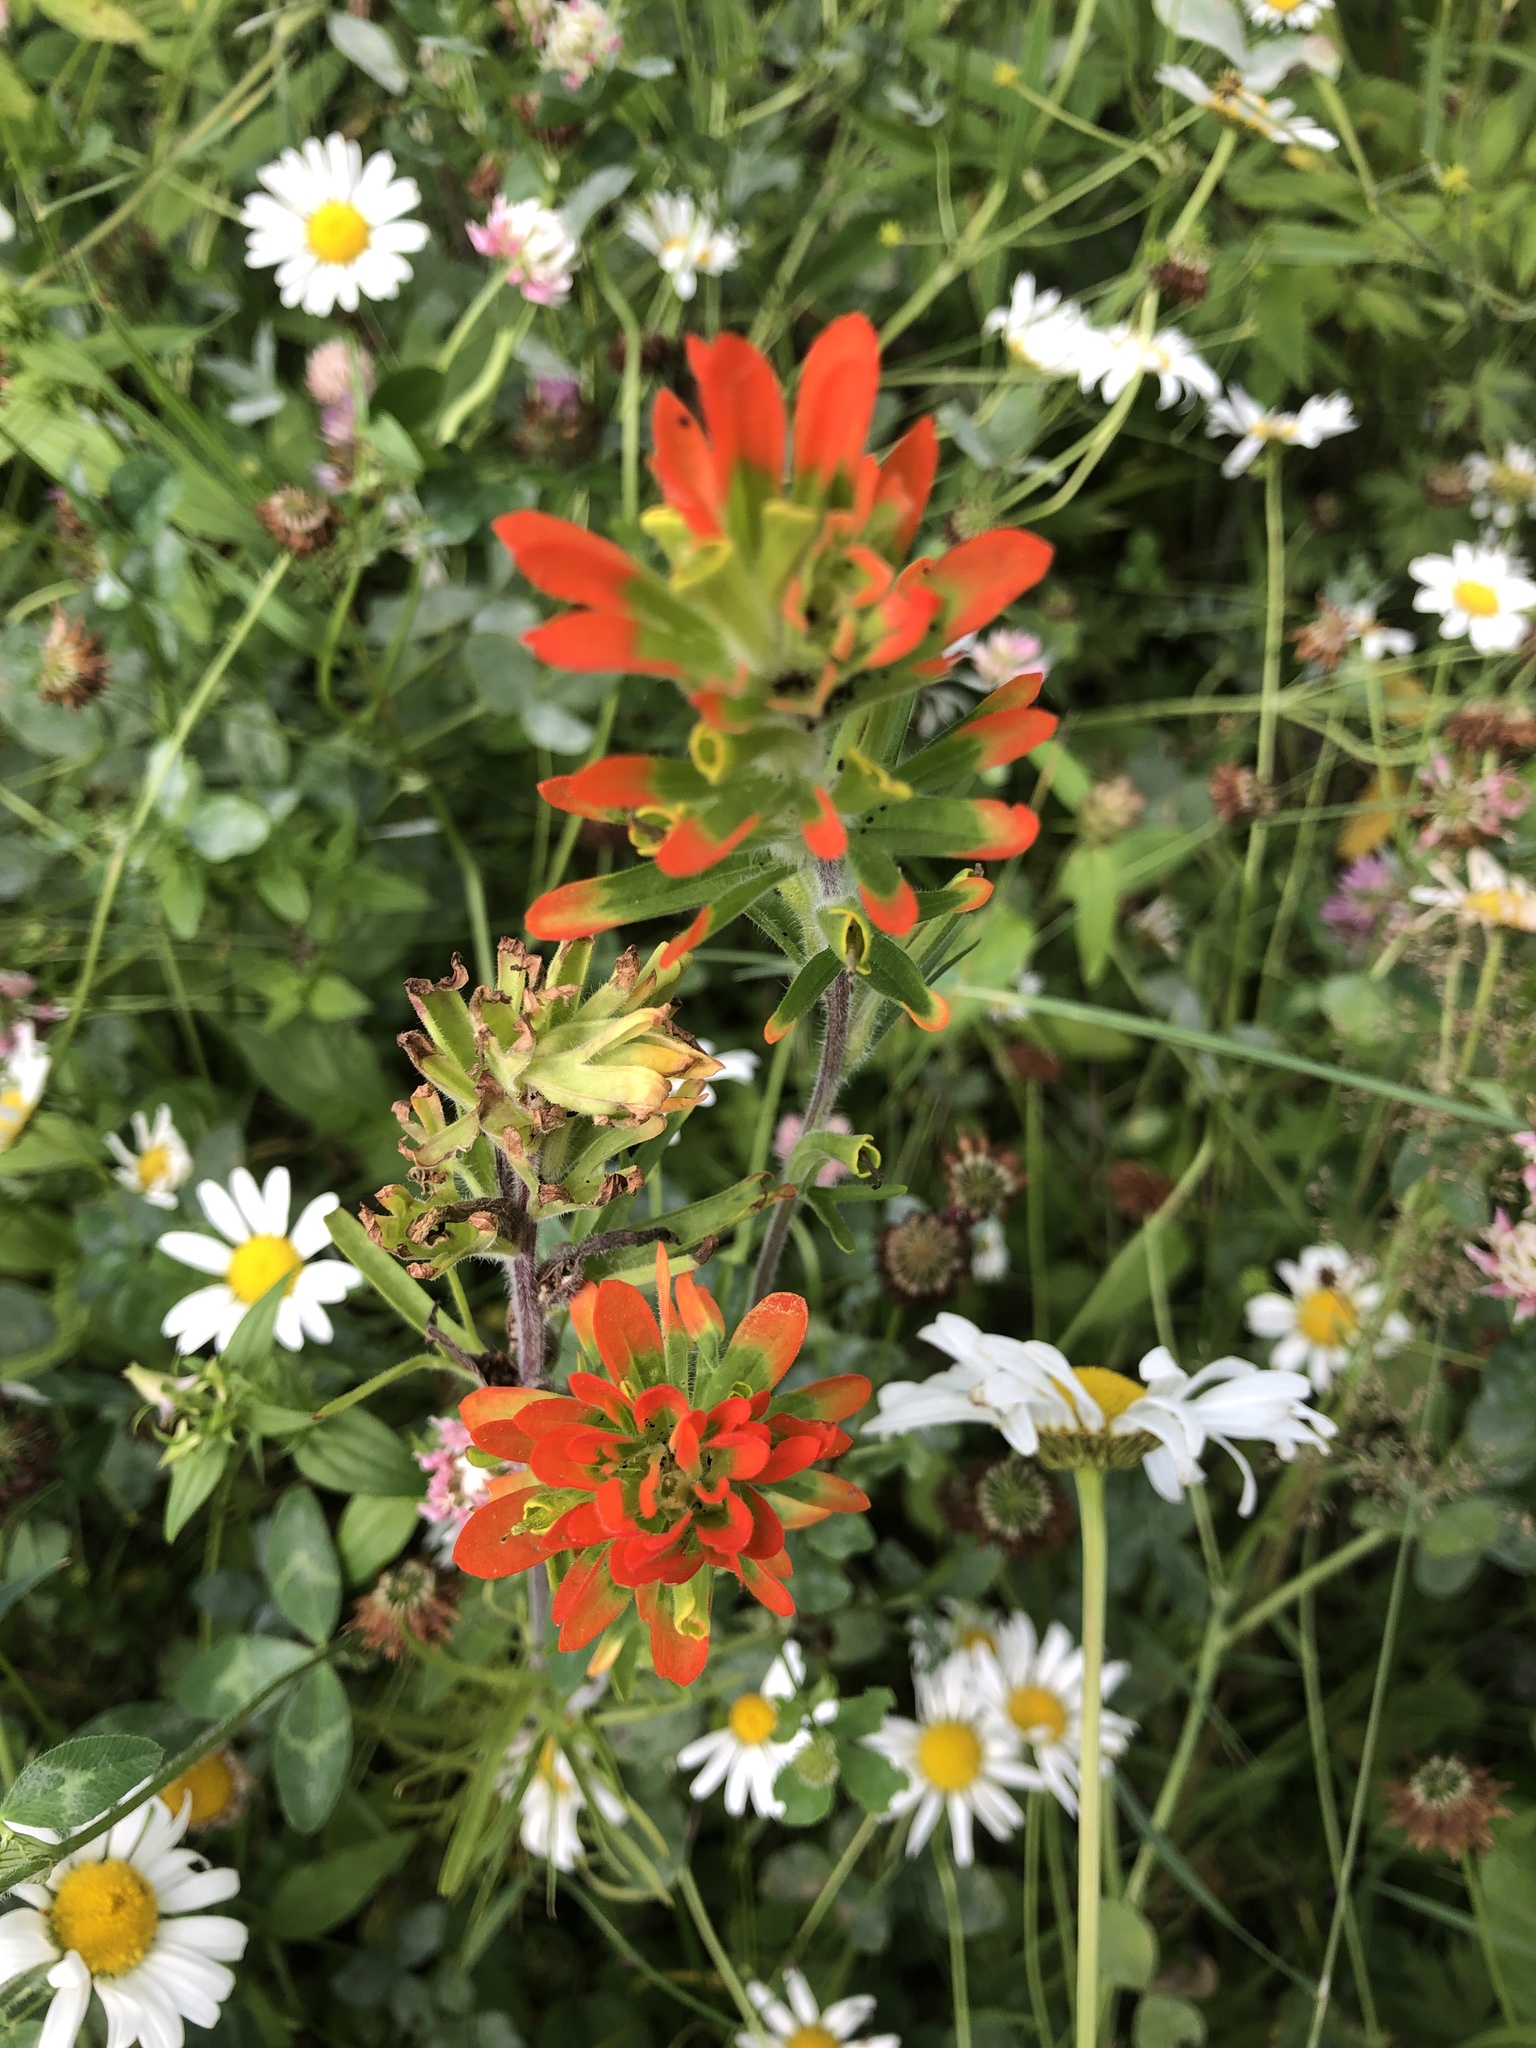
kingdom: Plantae
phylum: Tracheophyta
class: Magnoliopsida
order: Lamiales
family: Orobanchaceae
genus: Castilleja
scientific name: Castilleja coccinea
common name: Scarlet paintbrush
